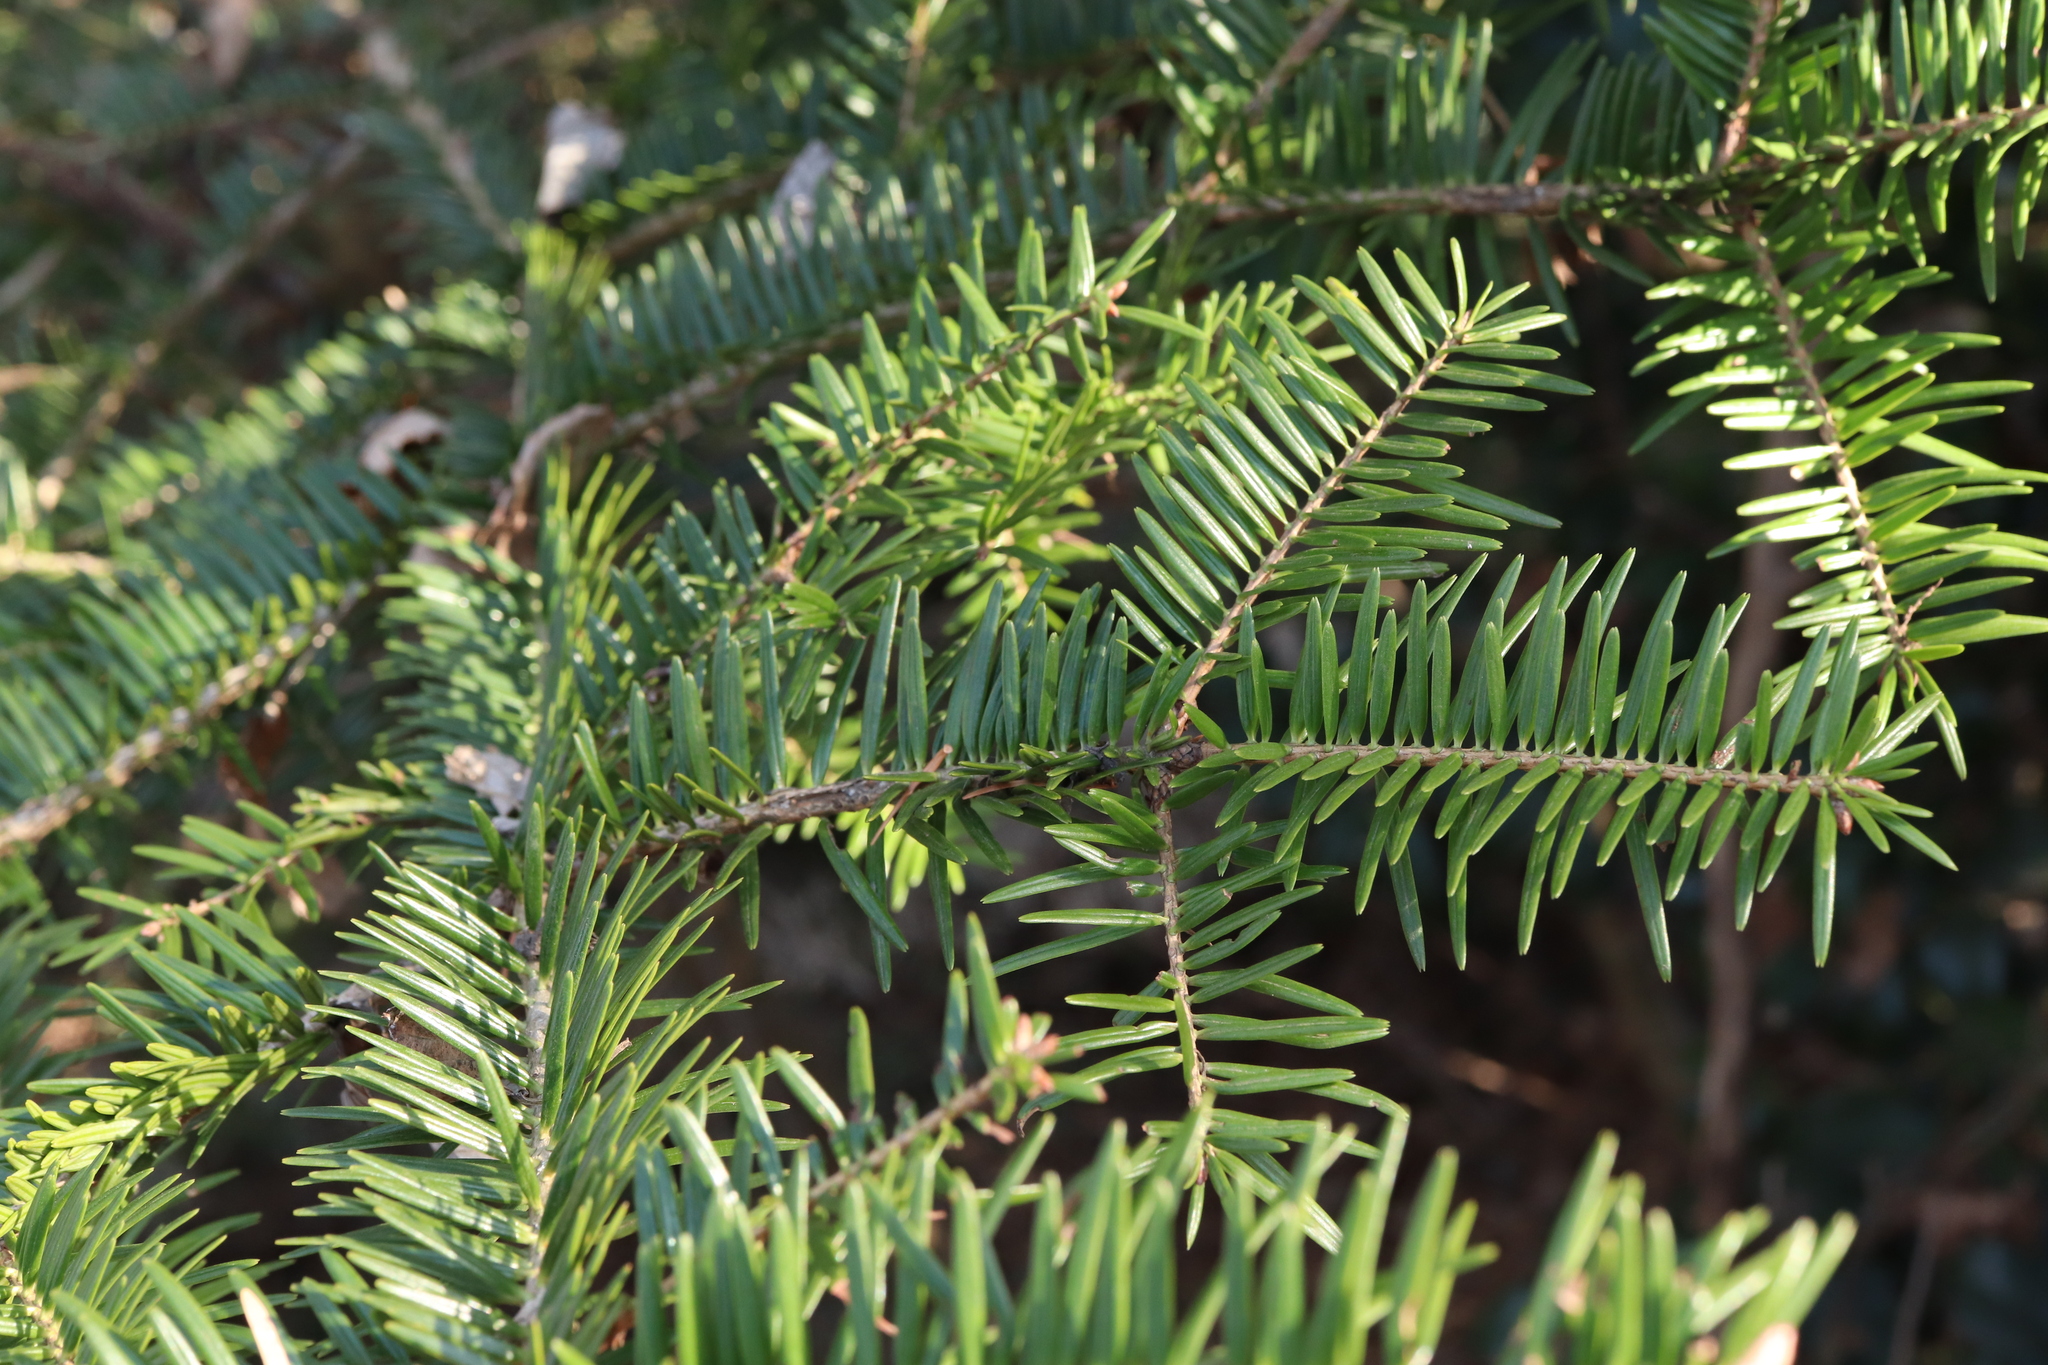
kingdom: Plantae
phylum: Tracheophyta
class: Pinopsida
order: Pinales
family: Pinaceae
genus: Abies
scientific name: Abies firma
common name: Momi fir
